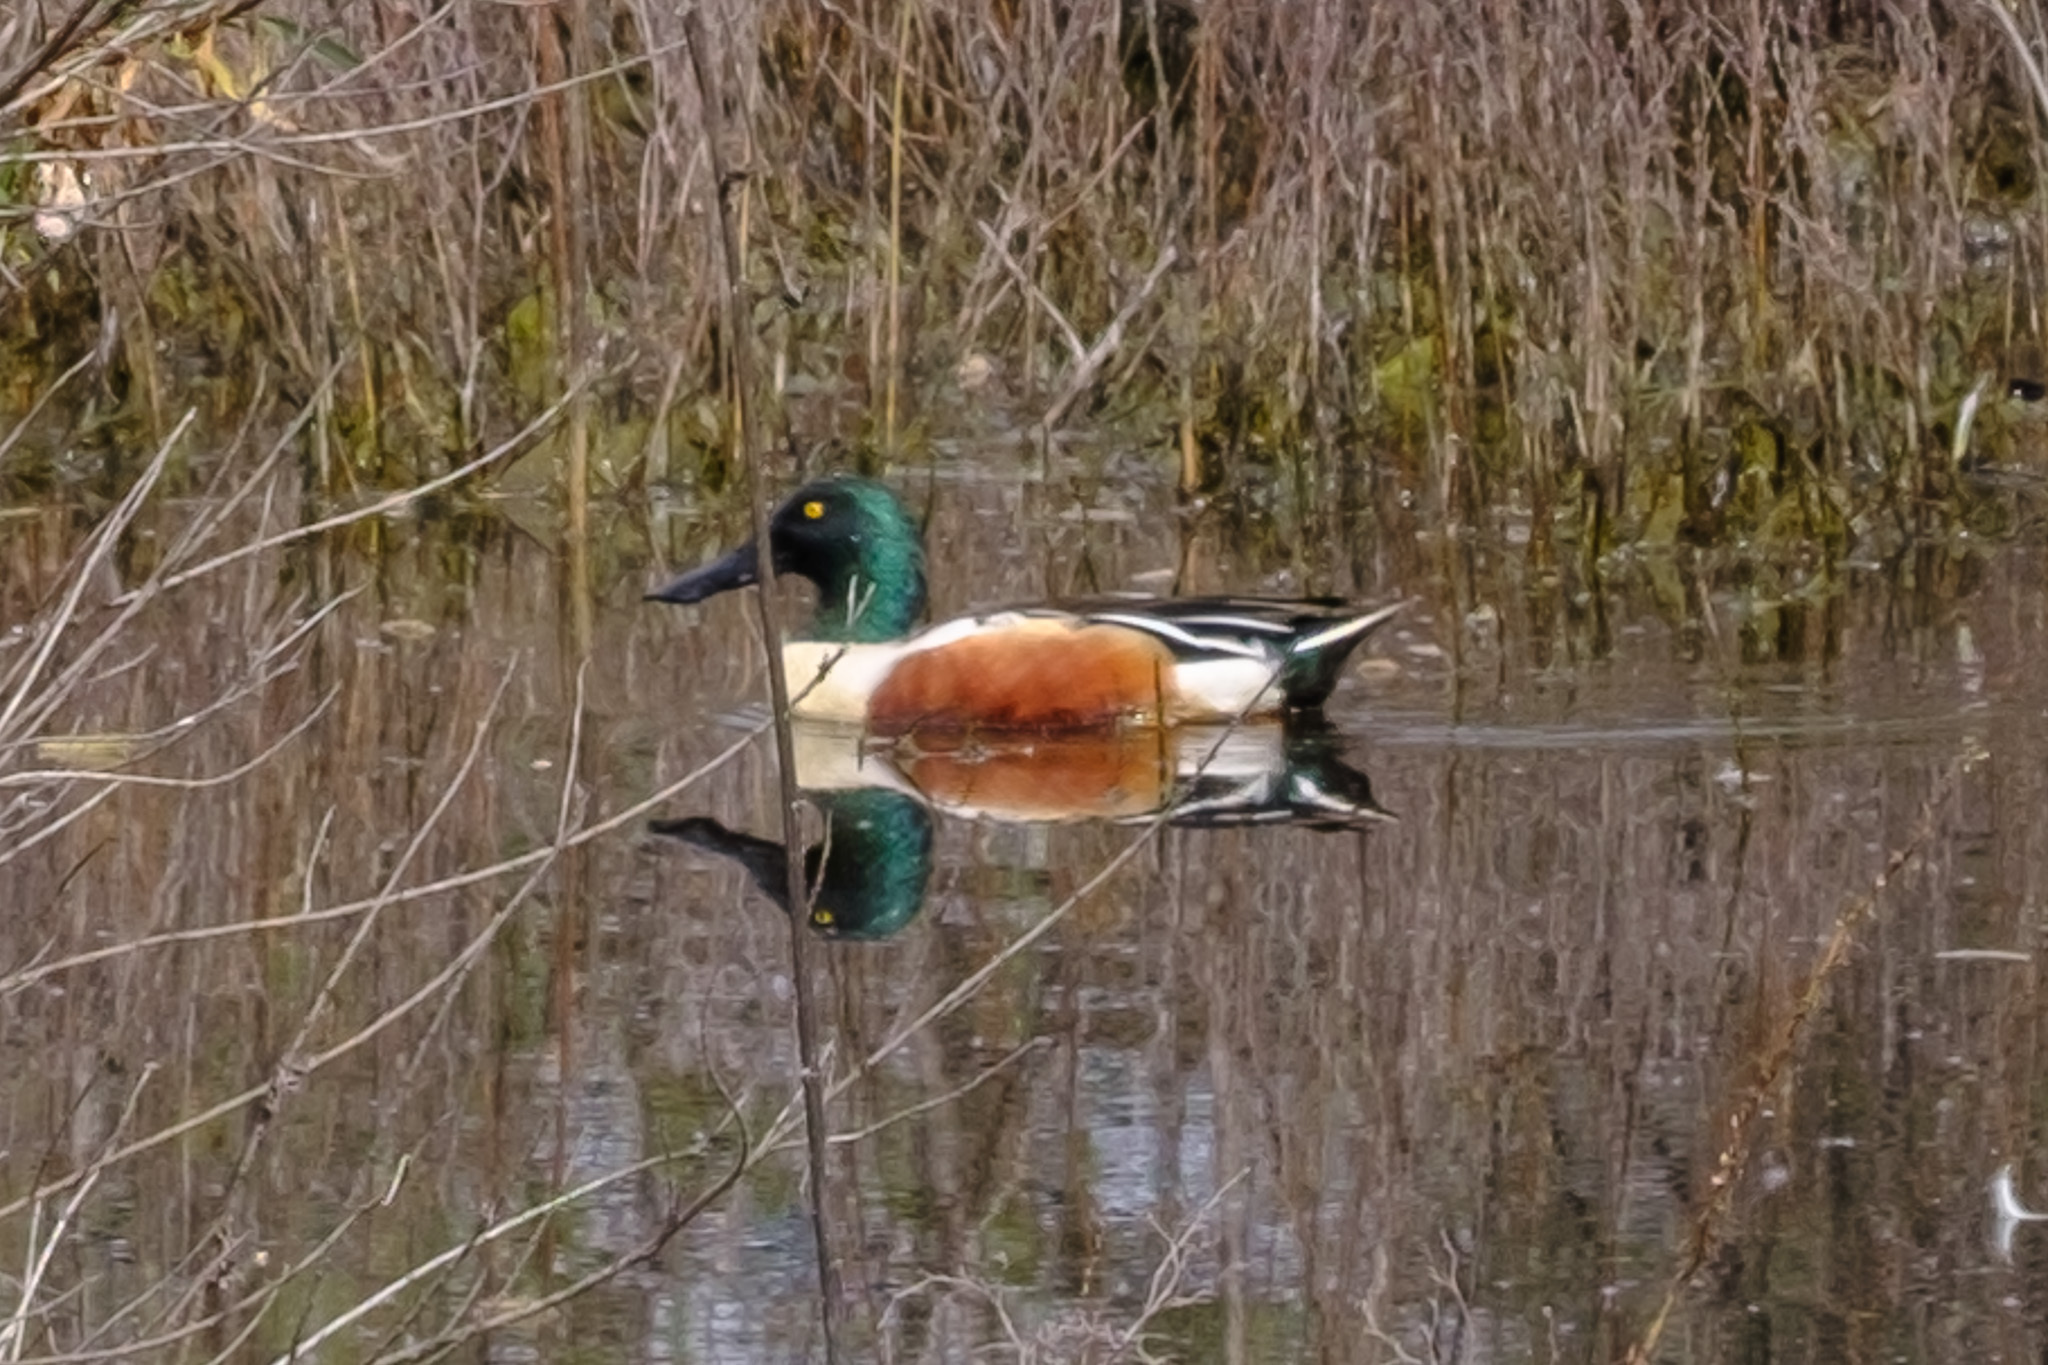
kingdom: Animalia
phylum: Chordata
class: Aves
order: Anseriformes
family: Anatidae
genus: Spatula
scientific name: Spatula clypeata
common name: Northern shoveler
